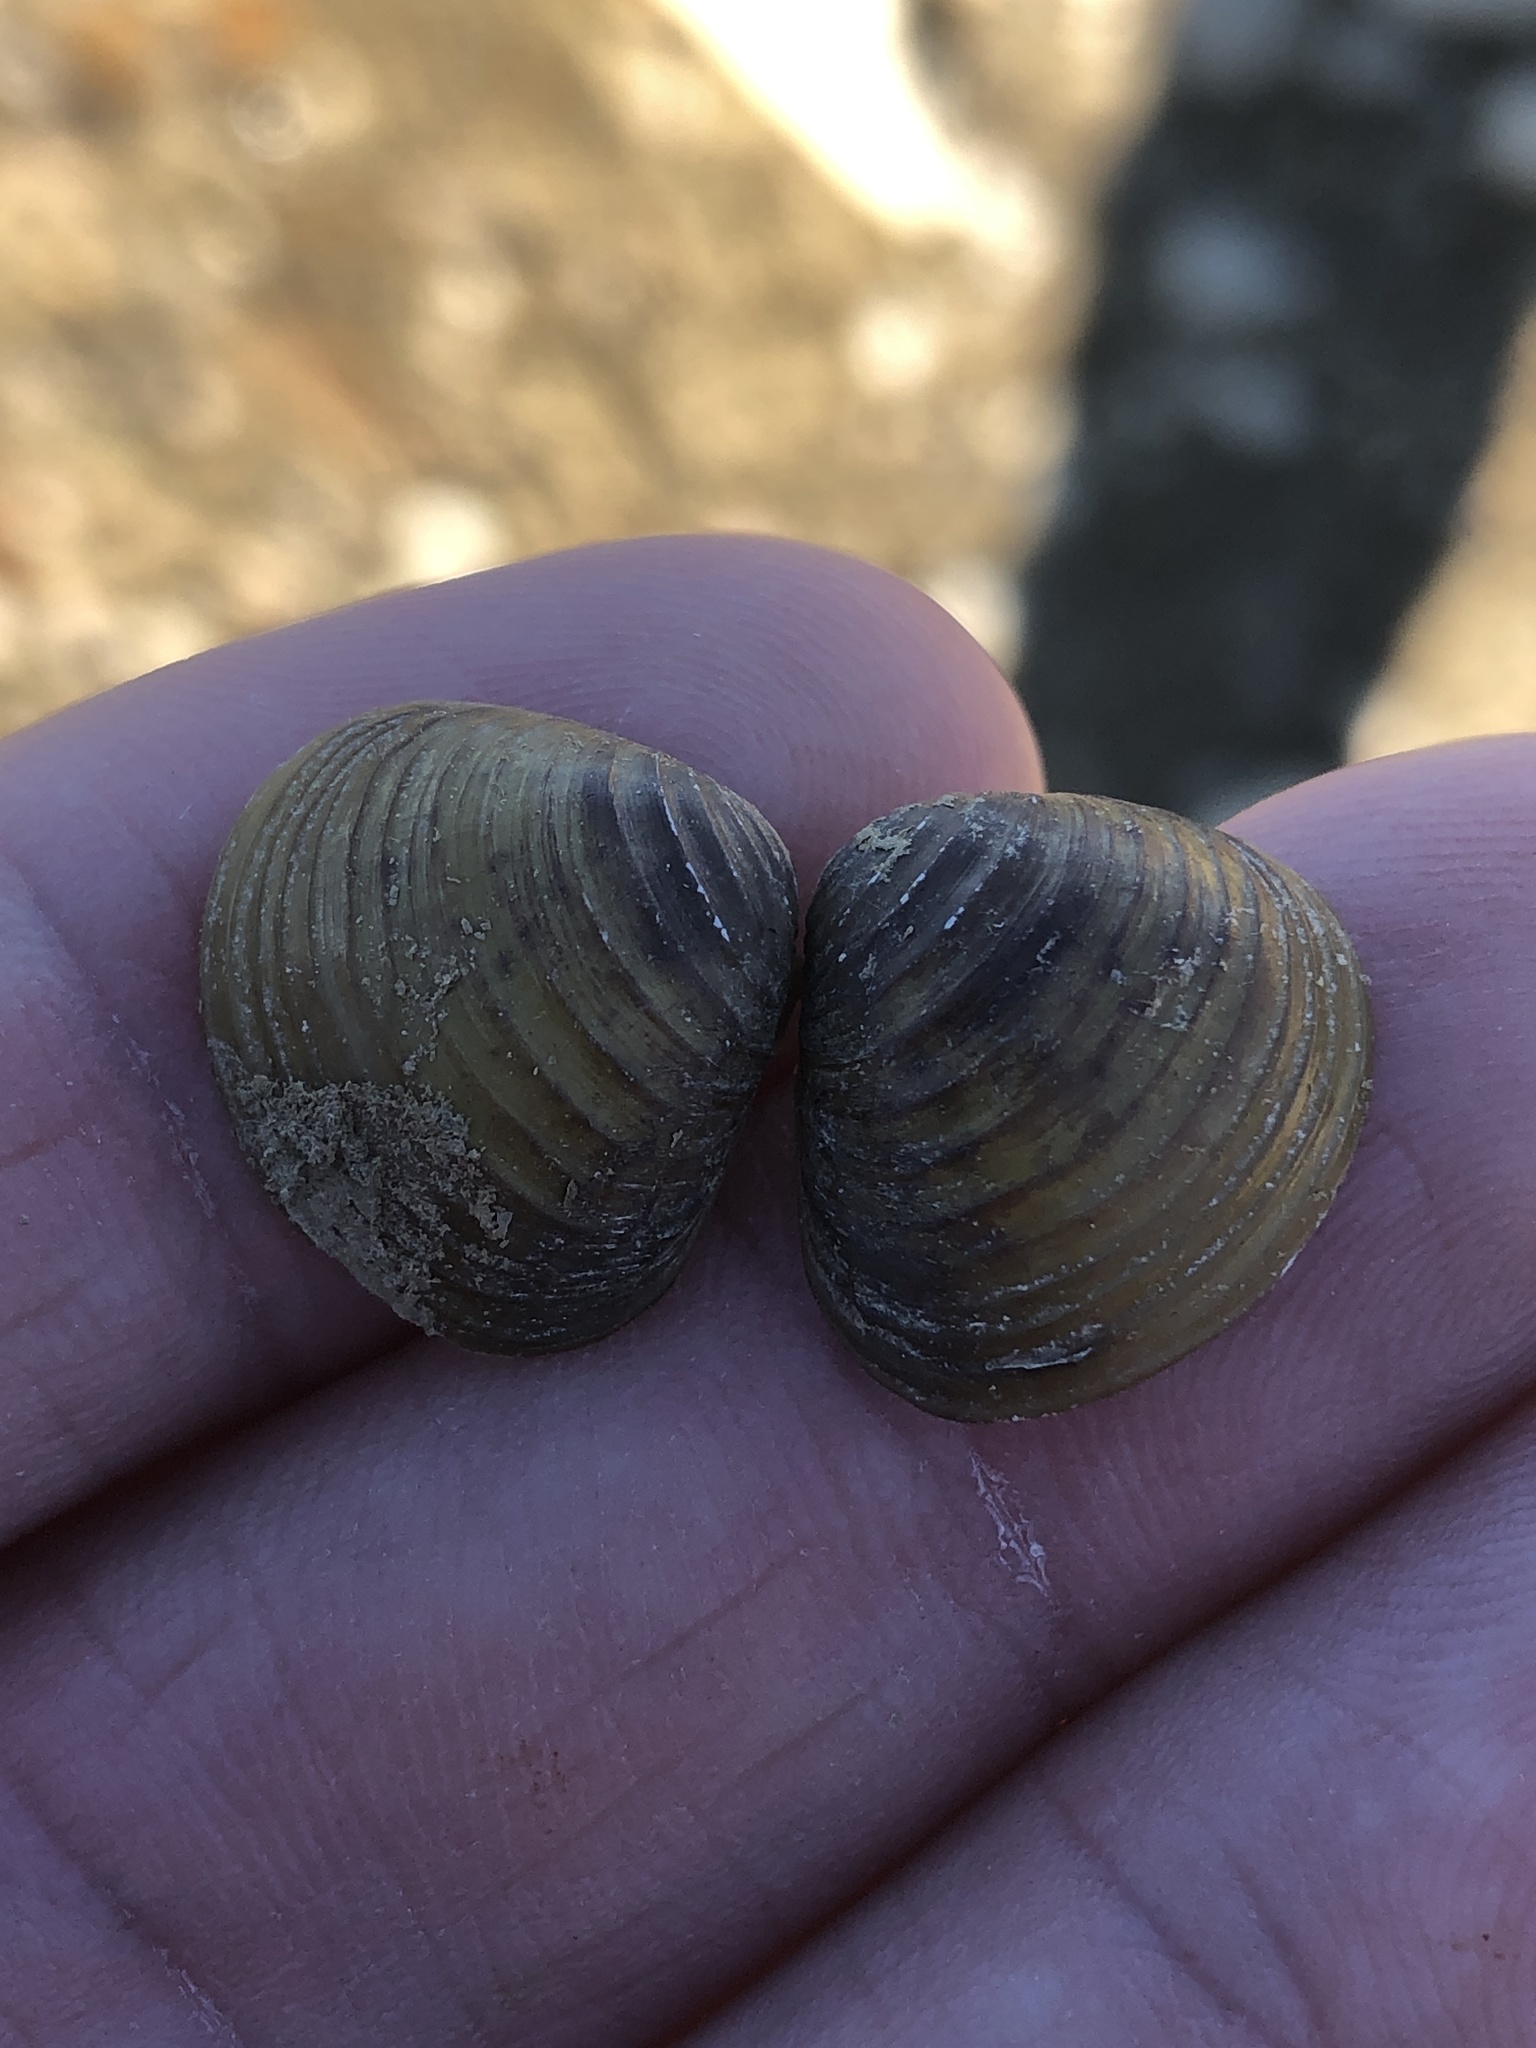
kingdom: Animalia
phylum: Mollusca
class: Bivalvia
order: Venerida
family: Cyrenidae
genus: Corbicula
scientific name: Corbicula fluminea
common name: Asian clam
